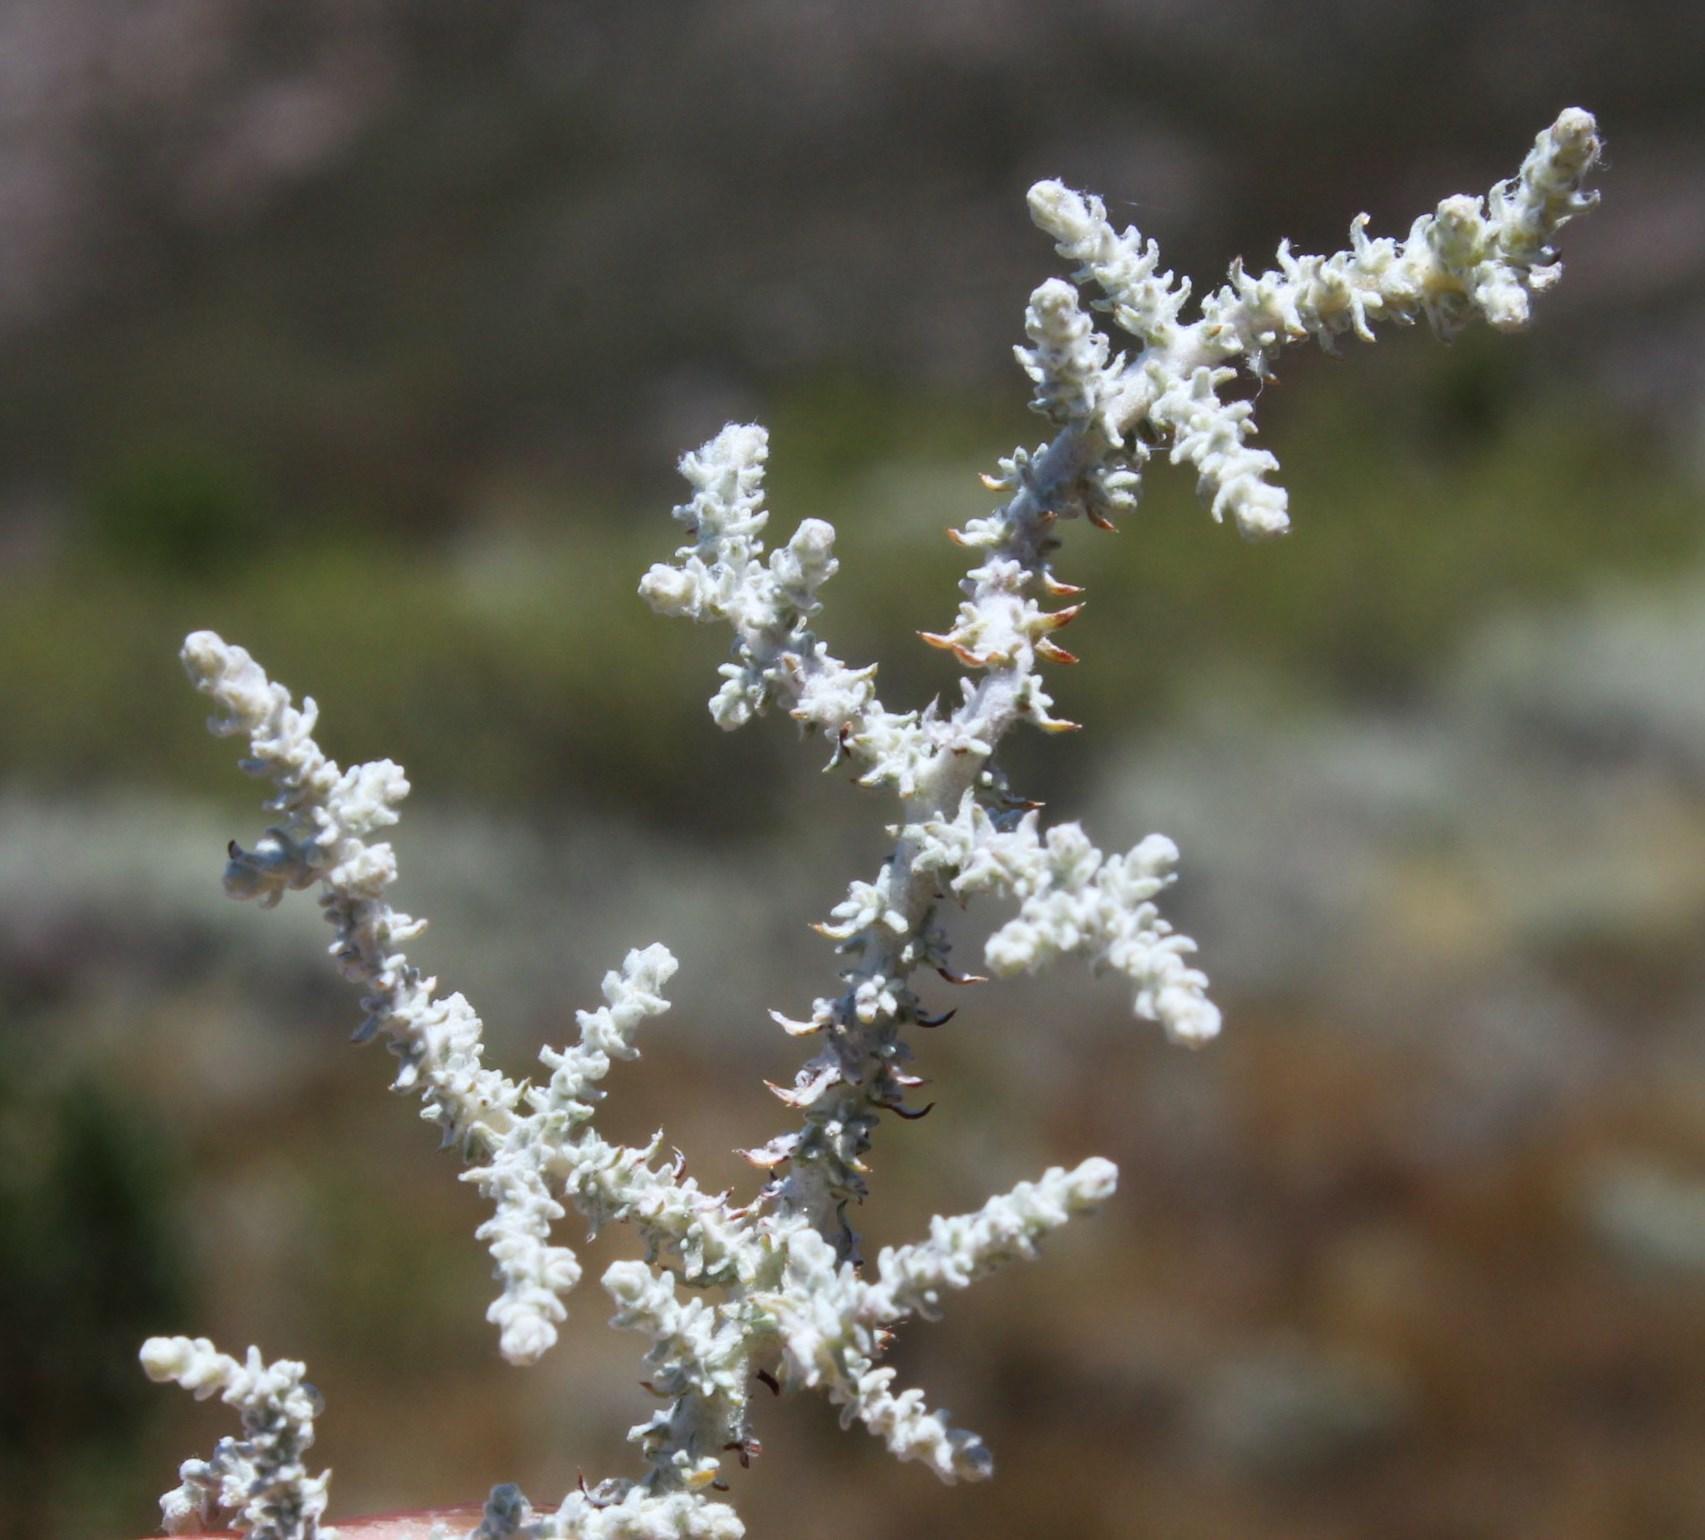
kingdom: Plantae
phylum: Tracheophyta
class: Magnoliopsida
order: Asterales
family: Asteraceae
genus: Seriphium
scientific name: Seriphium plumosum
